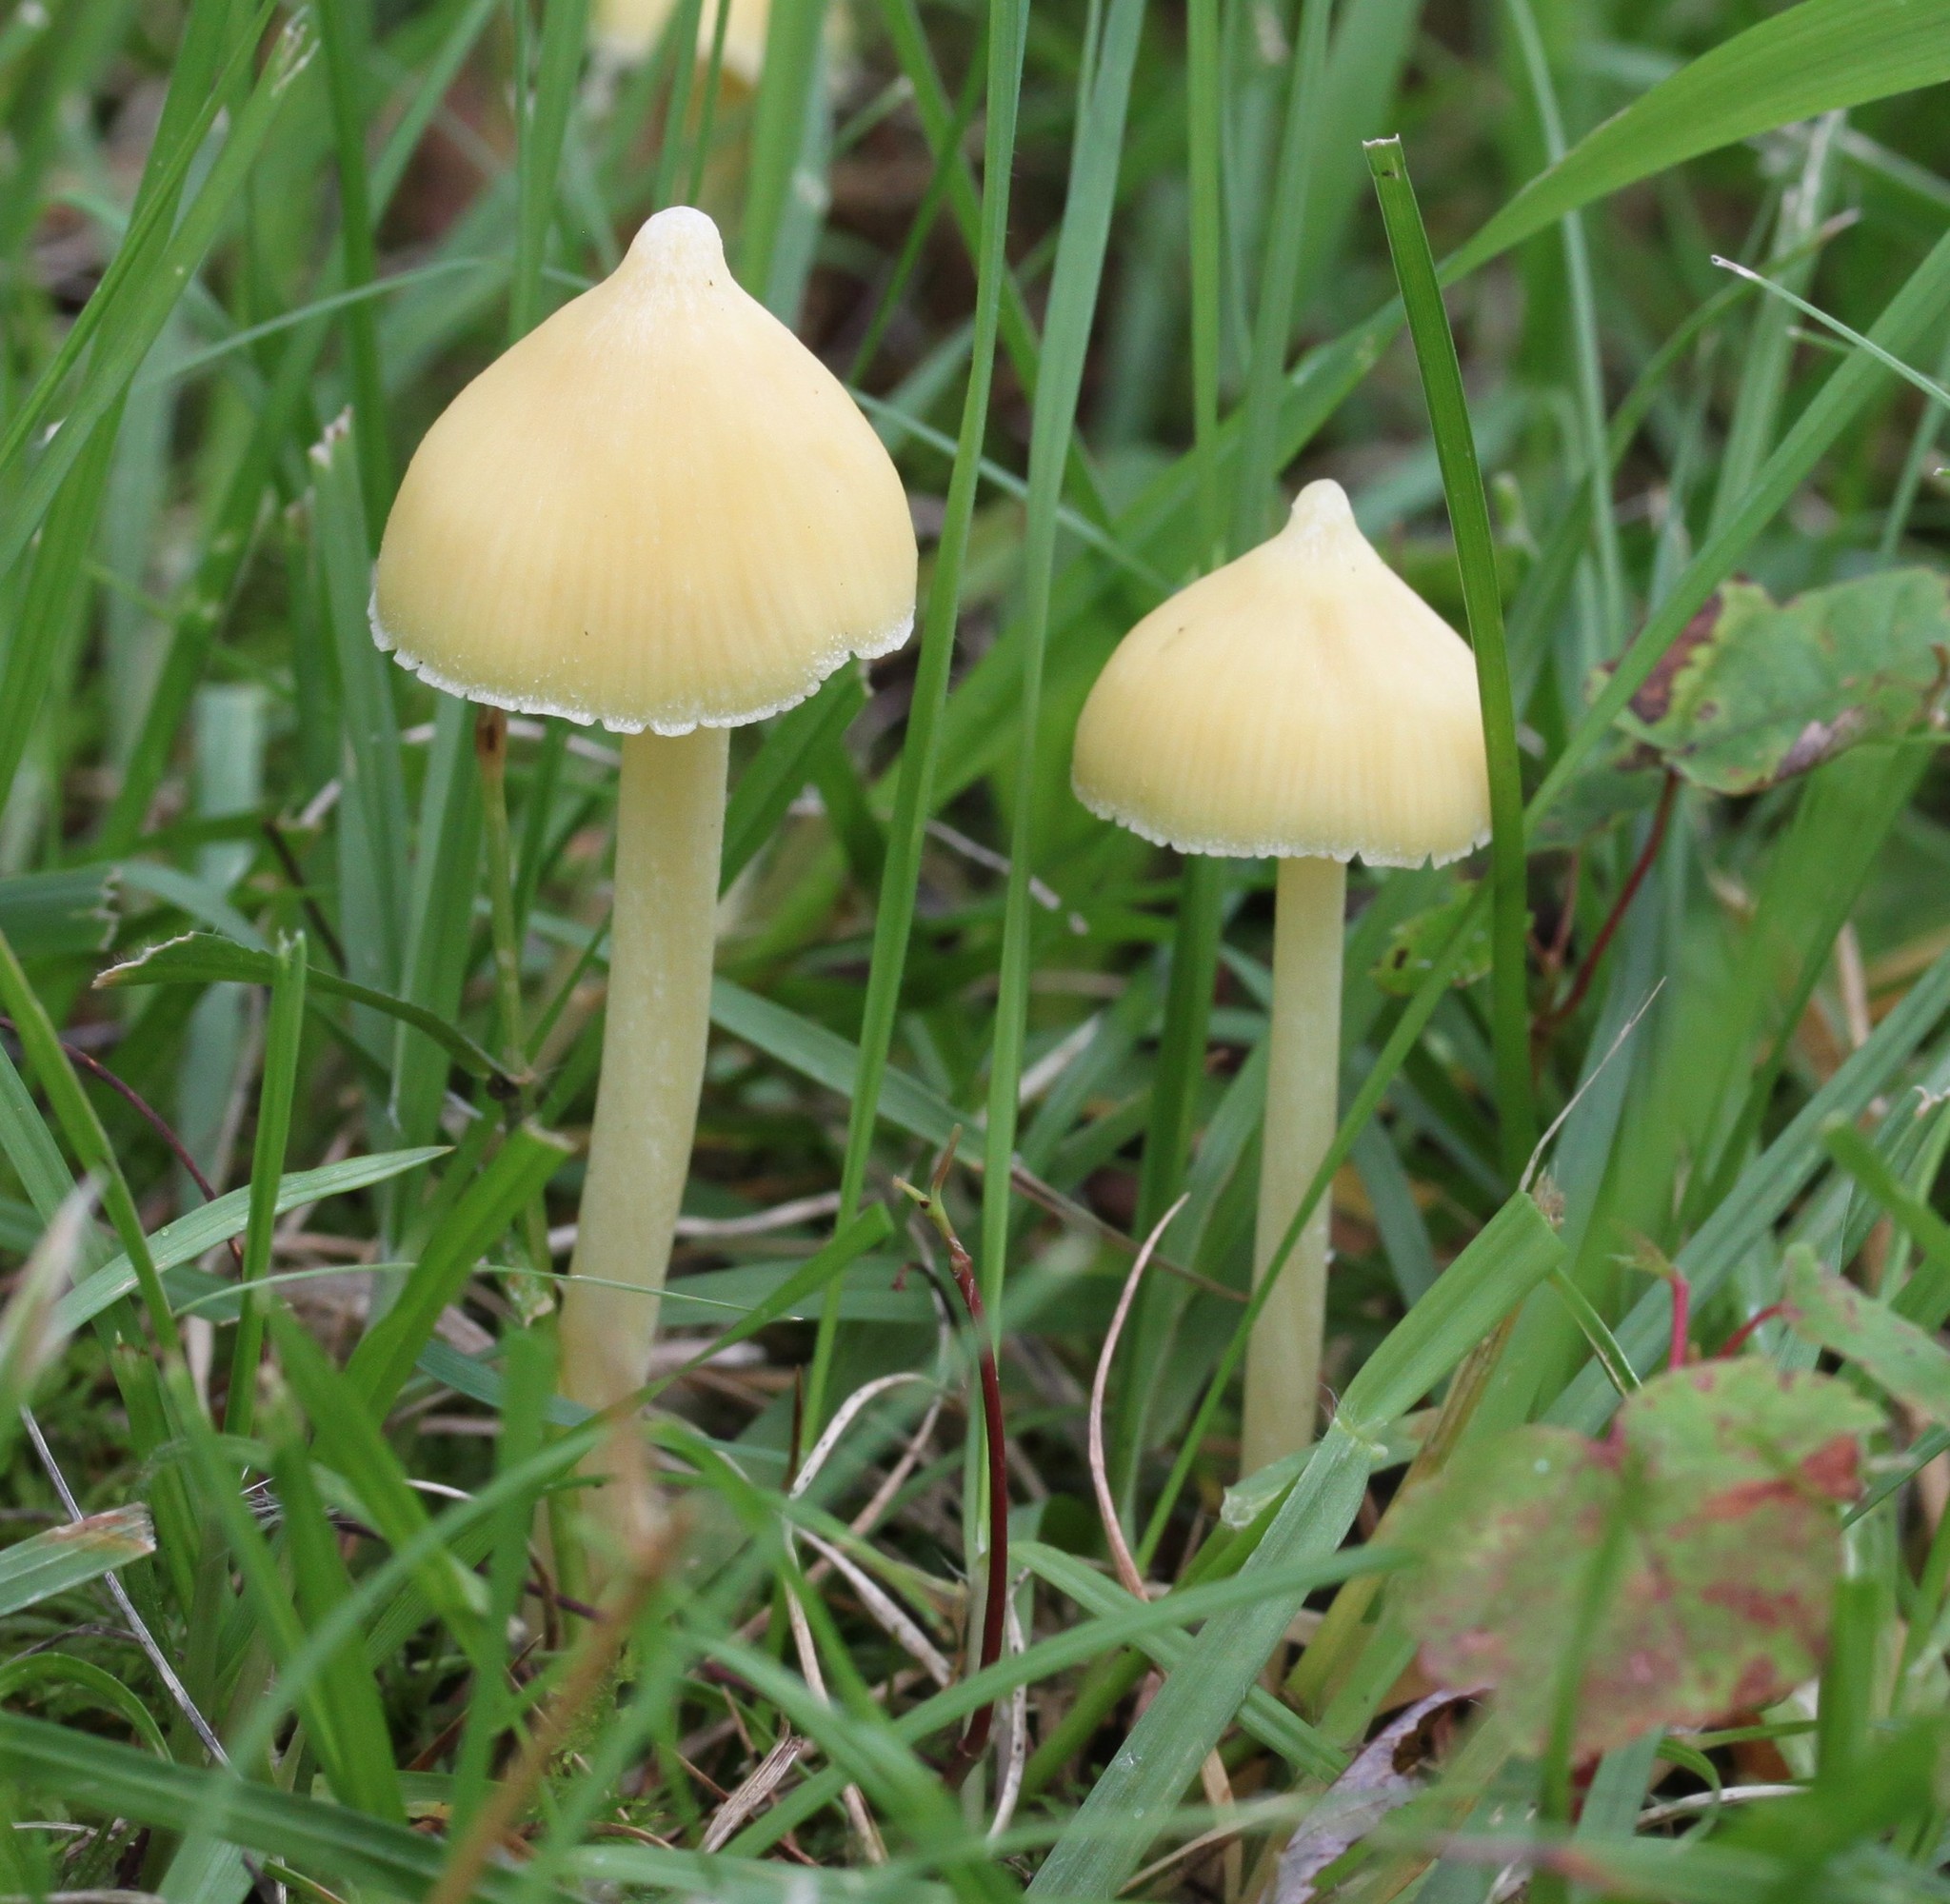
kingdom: Fungi
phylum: Basidiomycota
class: Agaricomycetes
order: Agaricales
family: Entolomataceae
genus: Entoloma
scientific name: Entoloma murrayi
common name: Yellow unicorn entoloma
